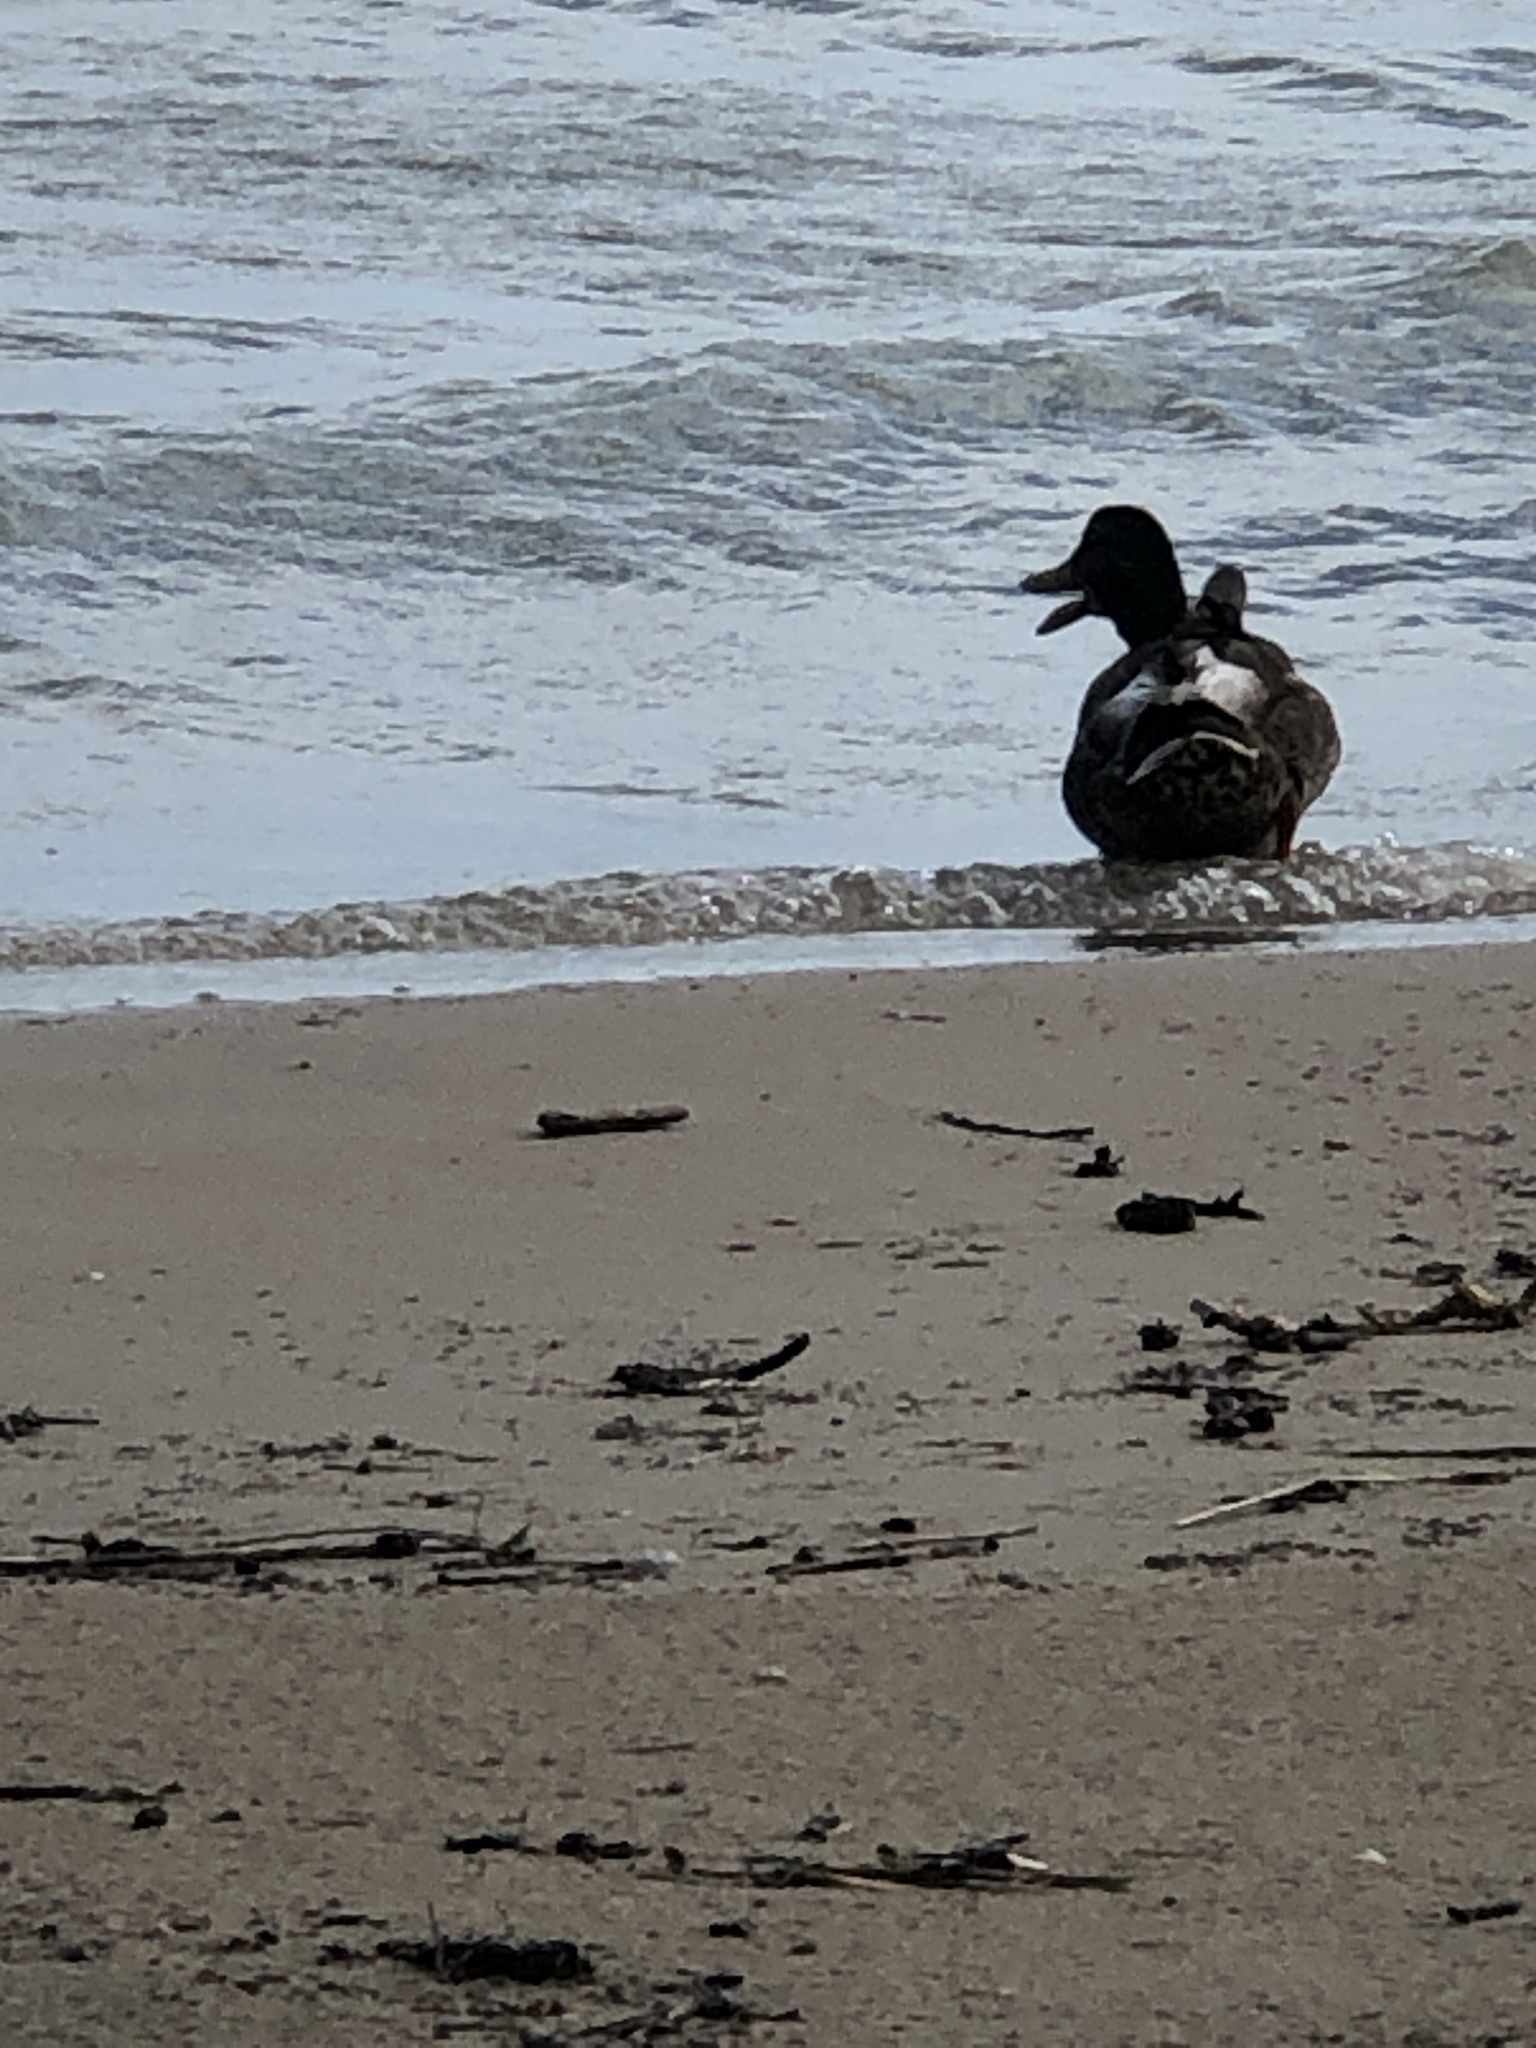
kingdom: Animalia
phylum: Chordata
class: Aves
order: Anseriformes
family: Anatidae
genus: Anas
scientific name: Anas platyrhynchos
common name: Mallard
